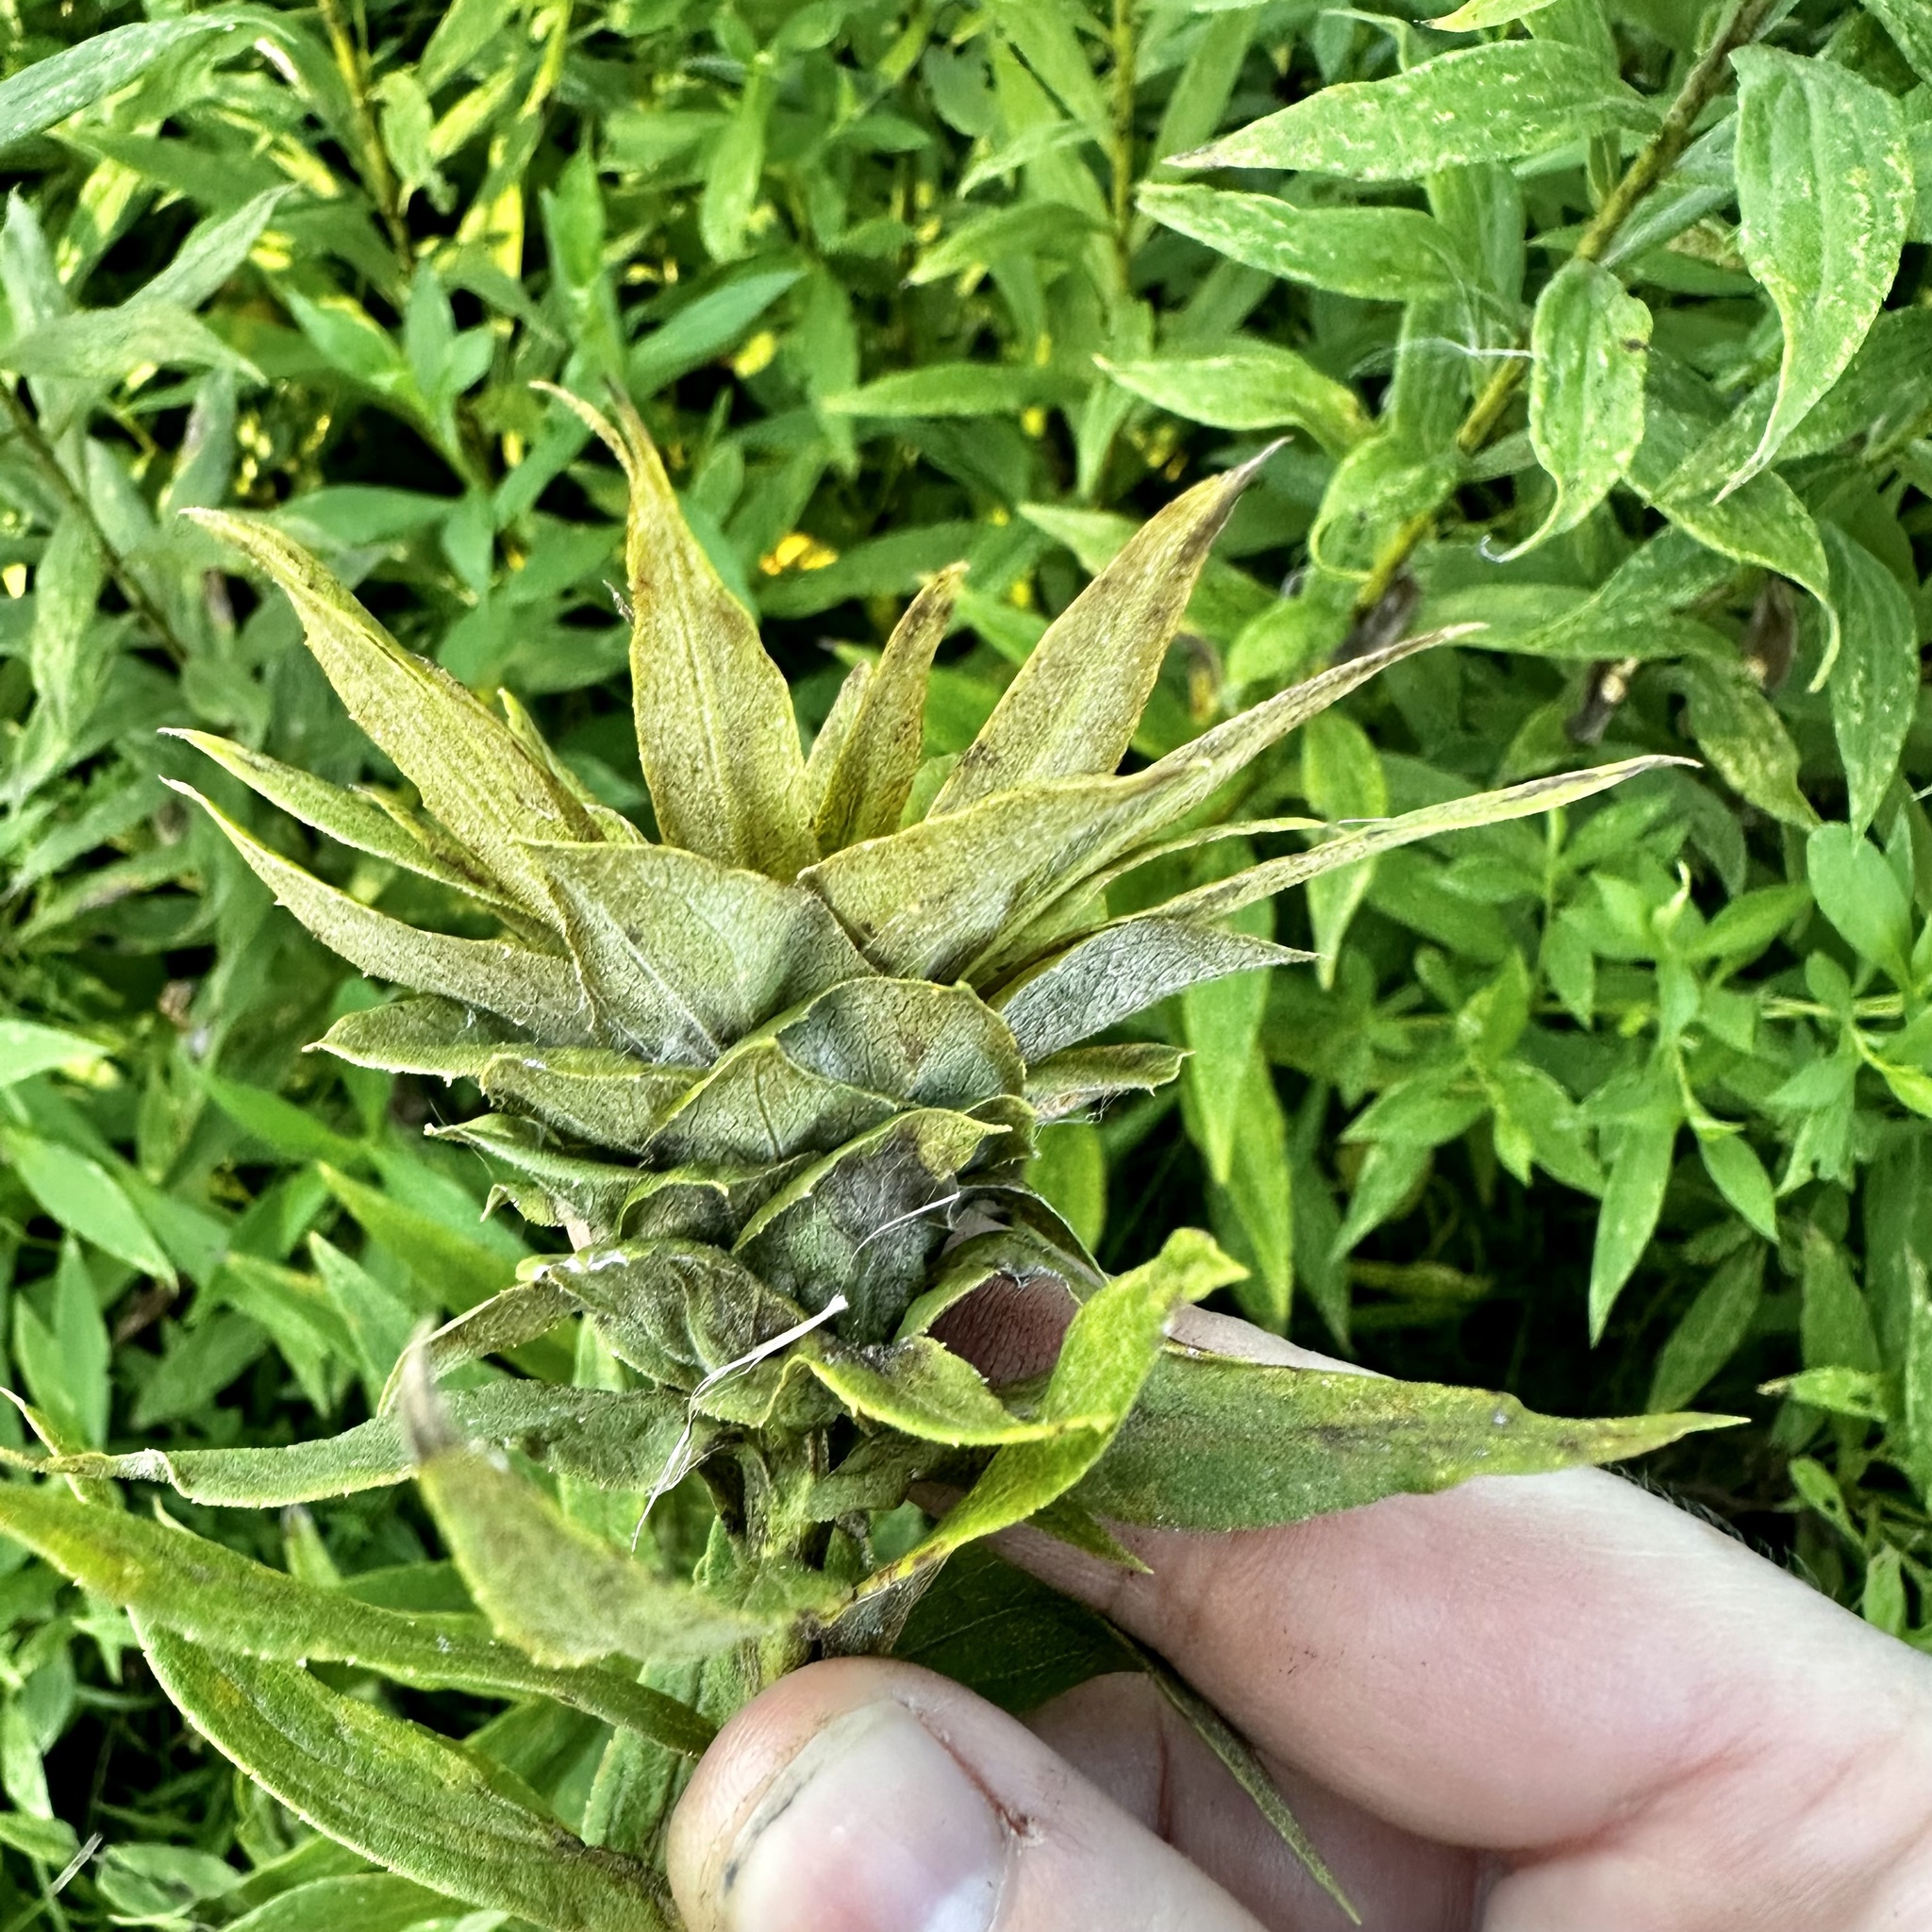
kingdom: Animalia
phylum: Arthropoda
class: Insecta
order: Diptera
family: Cecidomyiidae
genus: Rhopalomyia
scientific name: Rhopalomyia solidaginis
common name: Goldenrod bunch gall midge
